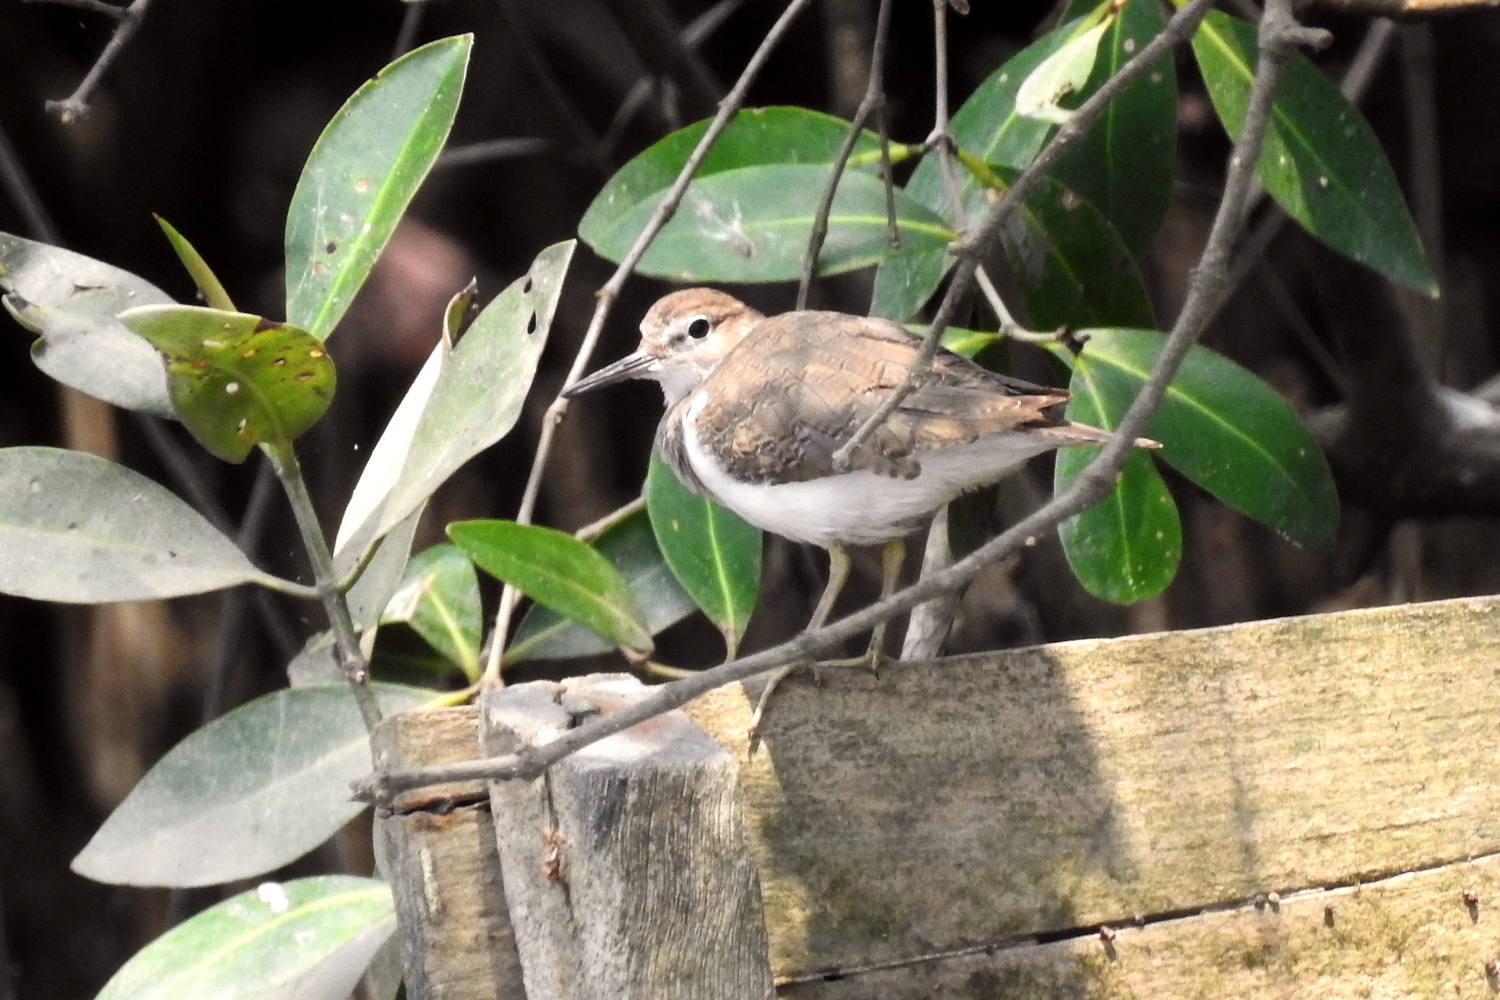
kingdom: Animalia
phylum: Chordata
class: Aves
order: Charadriiformes
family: Scolopacidae
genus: Actitis
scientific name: Actitis hypoleucos
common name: Common sandpiper
